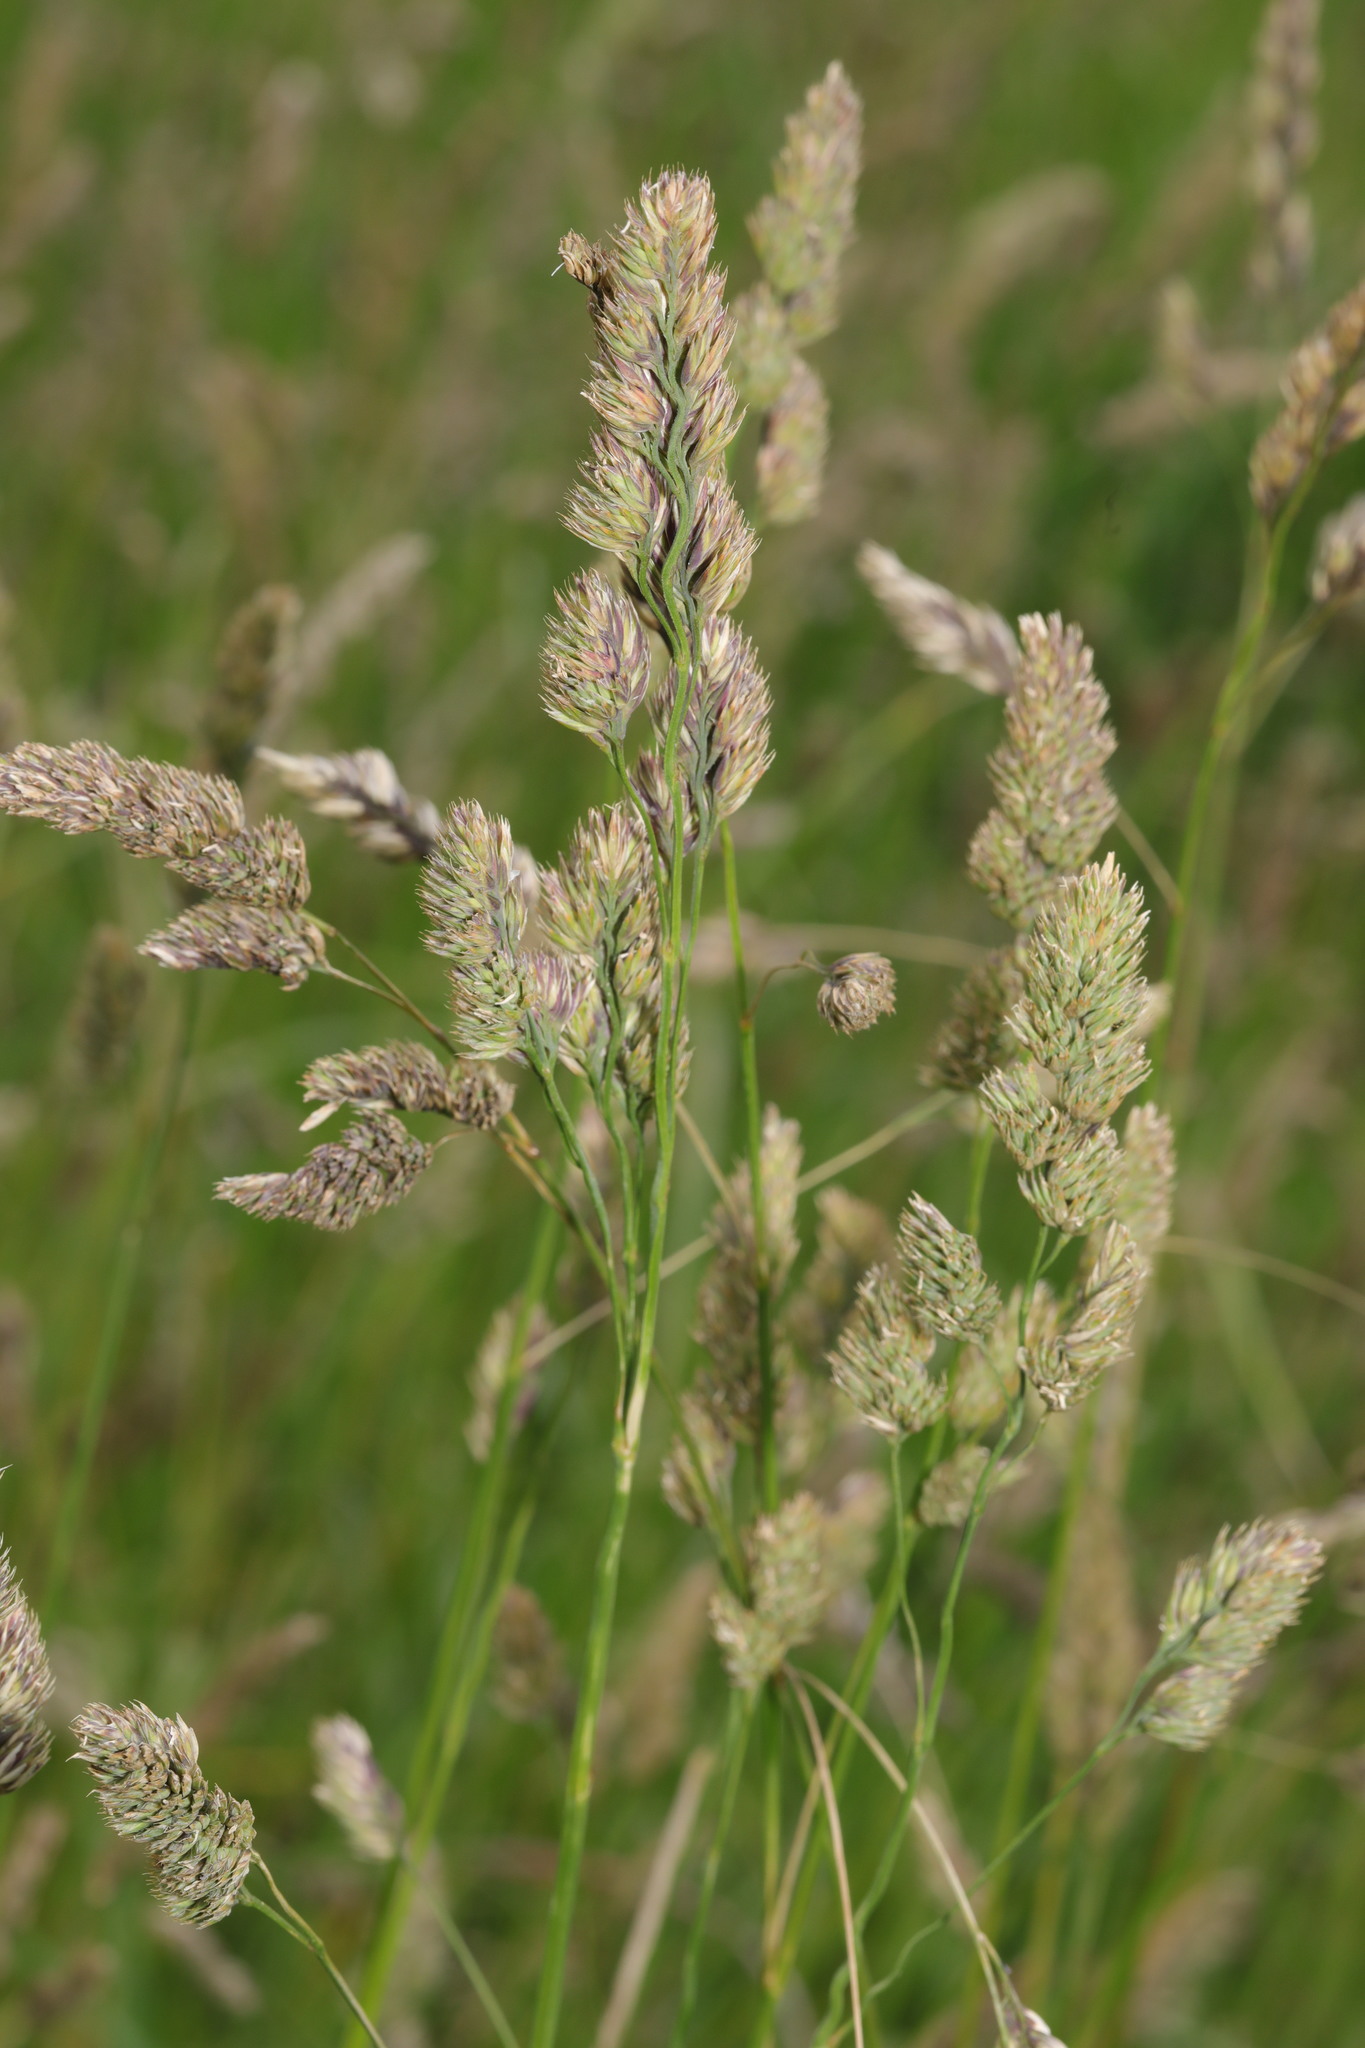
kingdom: Plantae
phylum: Tracheophyta
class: Liliopsida
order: Poales
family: Poaceae
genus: Dactylis
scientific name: Dactylis glomerata
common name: Orchardgrass
